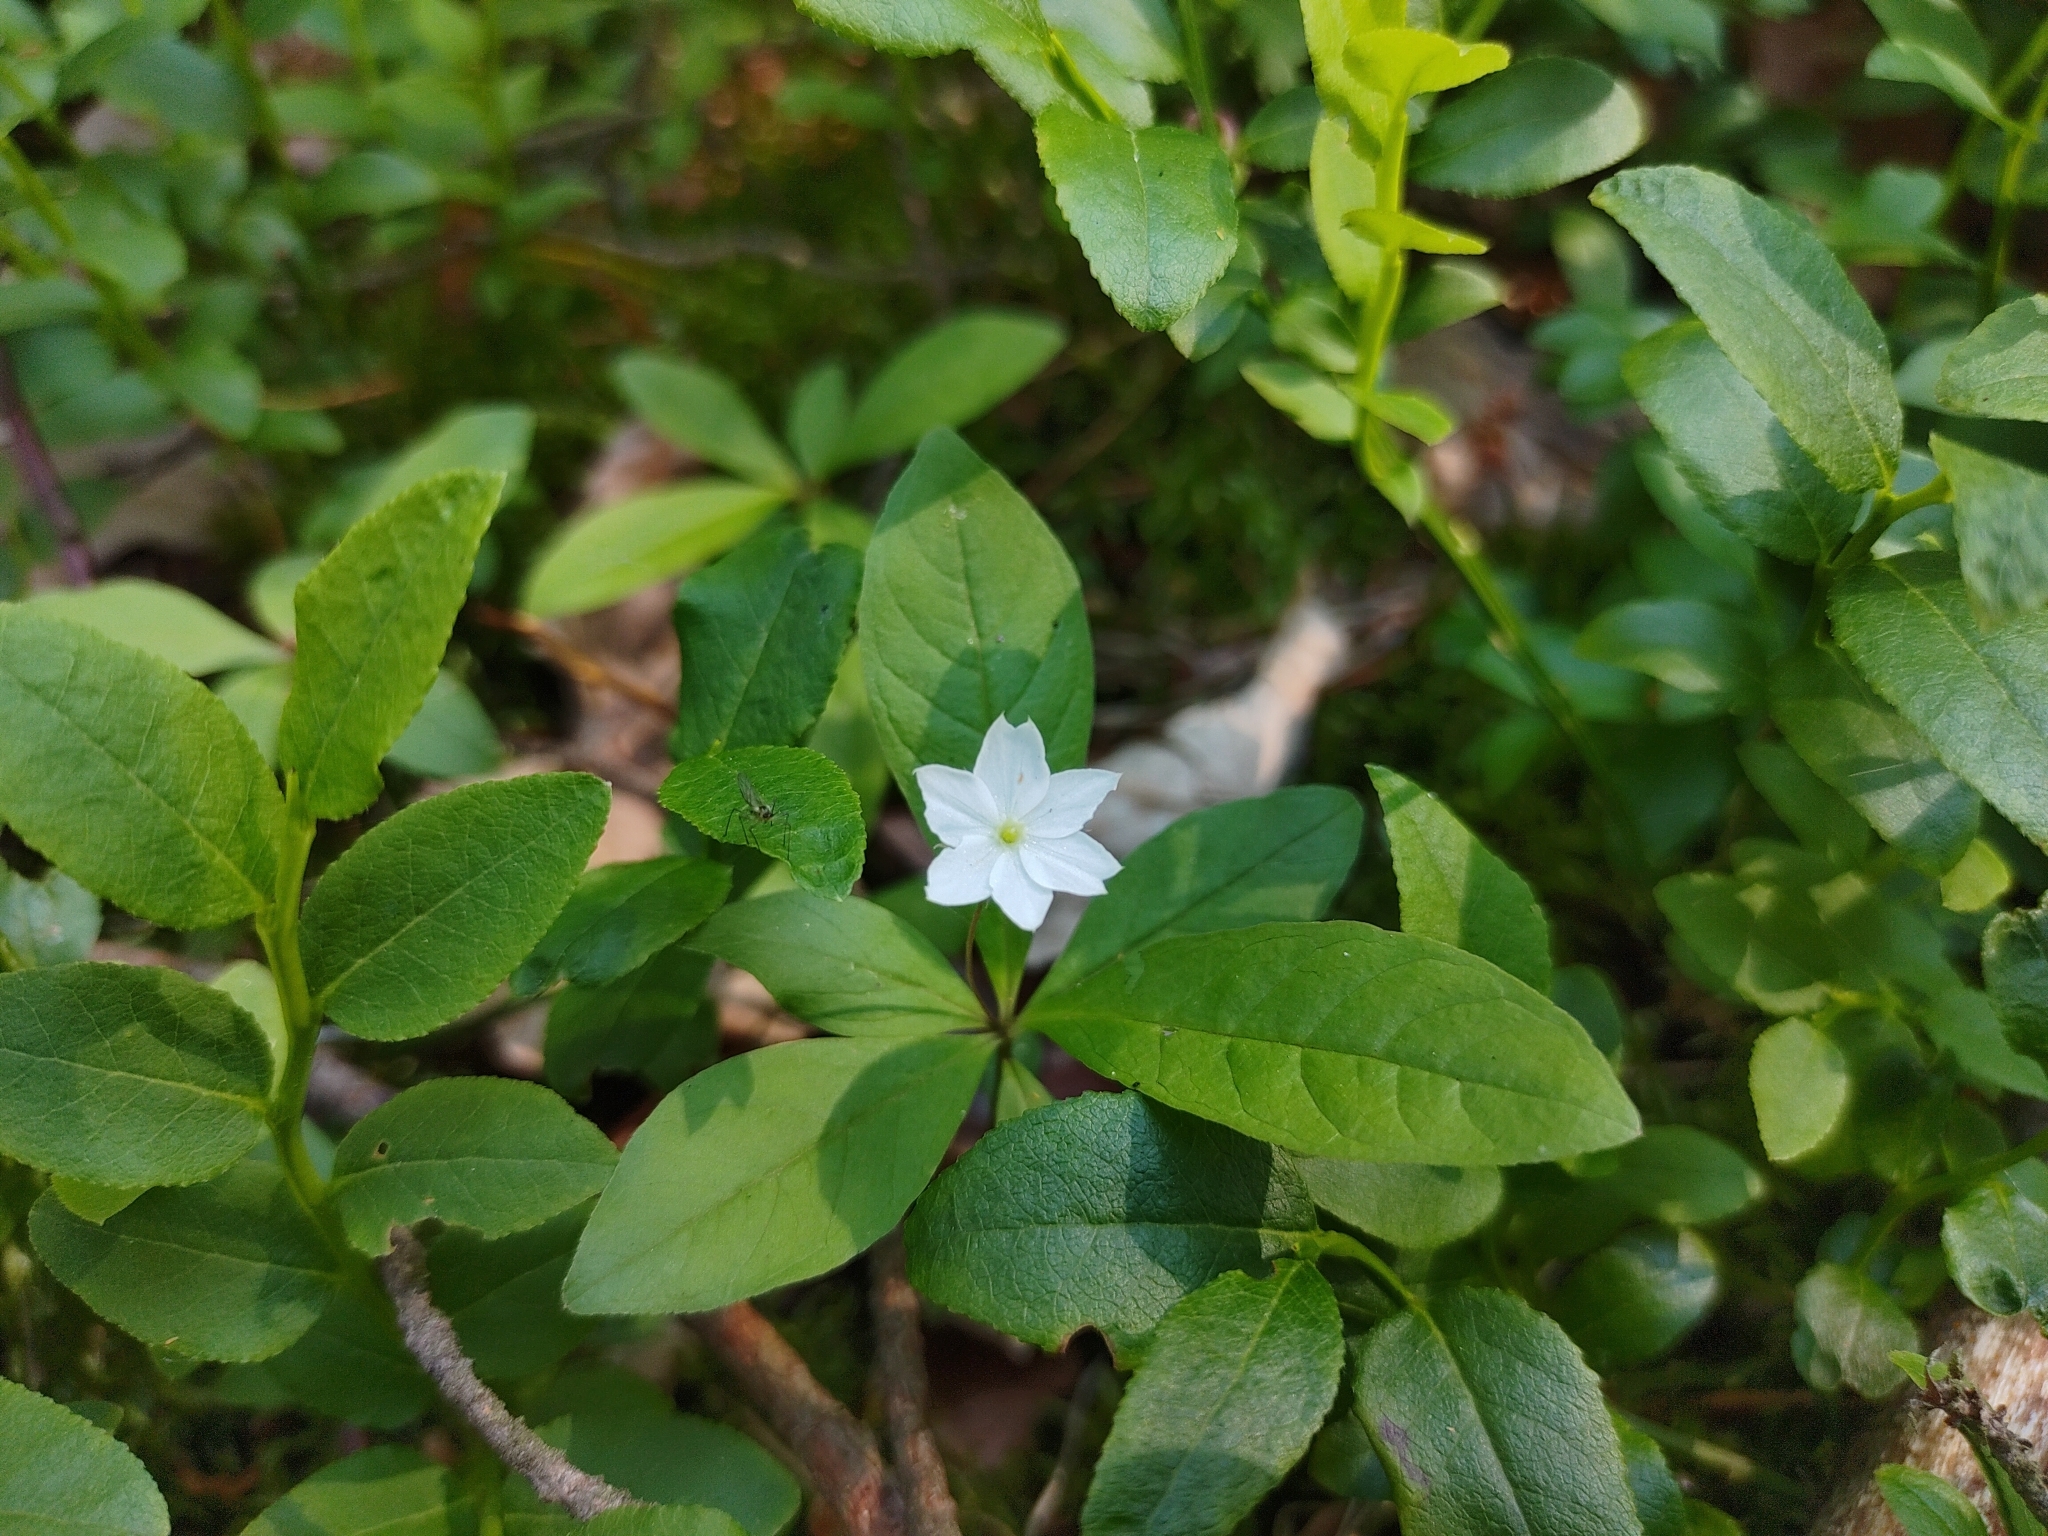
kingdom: Plantae
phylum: Tracheophyta
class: Magnoliopsida
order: Ericales
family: Primulaceae
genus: Lysimachia
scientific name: Lysimachia europaea
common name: Arctic starflower
